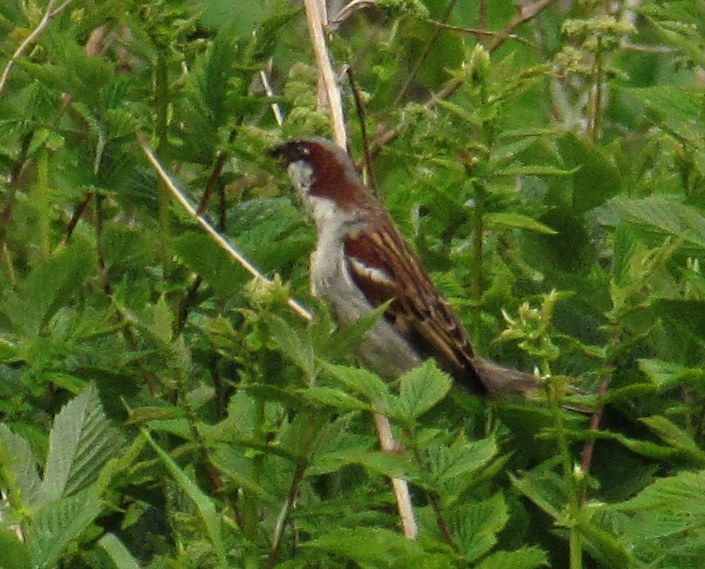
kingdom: Animalia
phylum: Chordata
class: Aves
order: Passeriformes
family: Passeridae
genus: Passer
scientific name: Passer domesticus
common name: House sparrow
